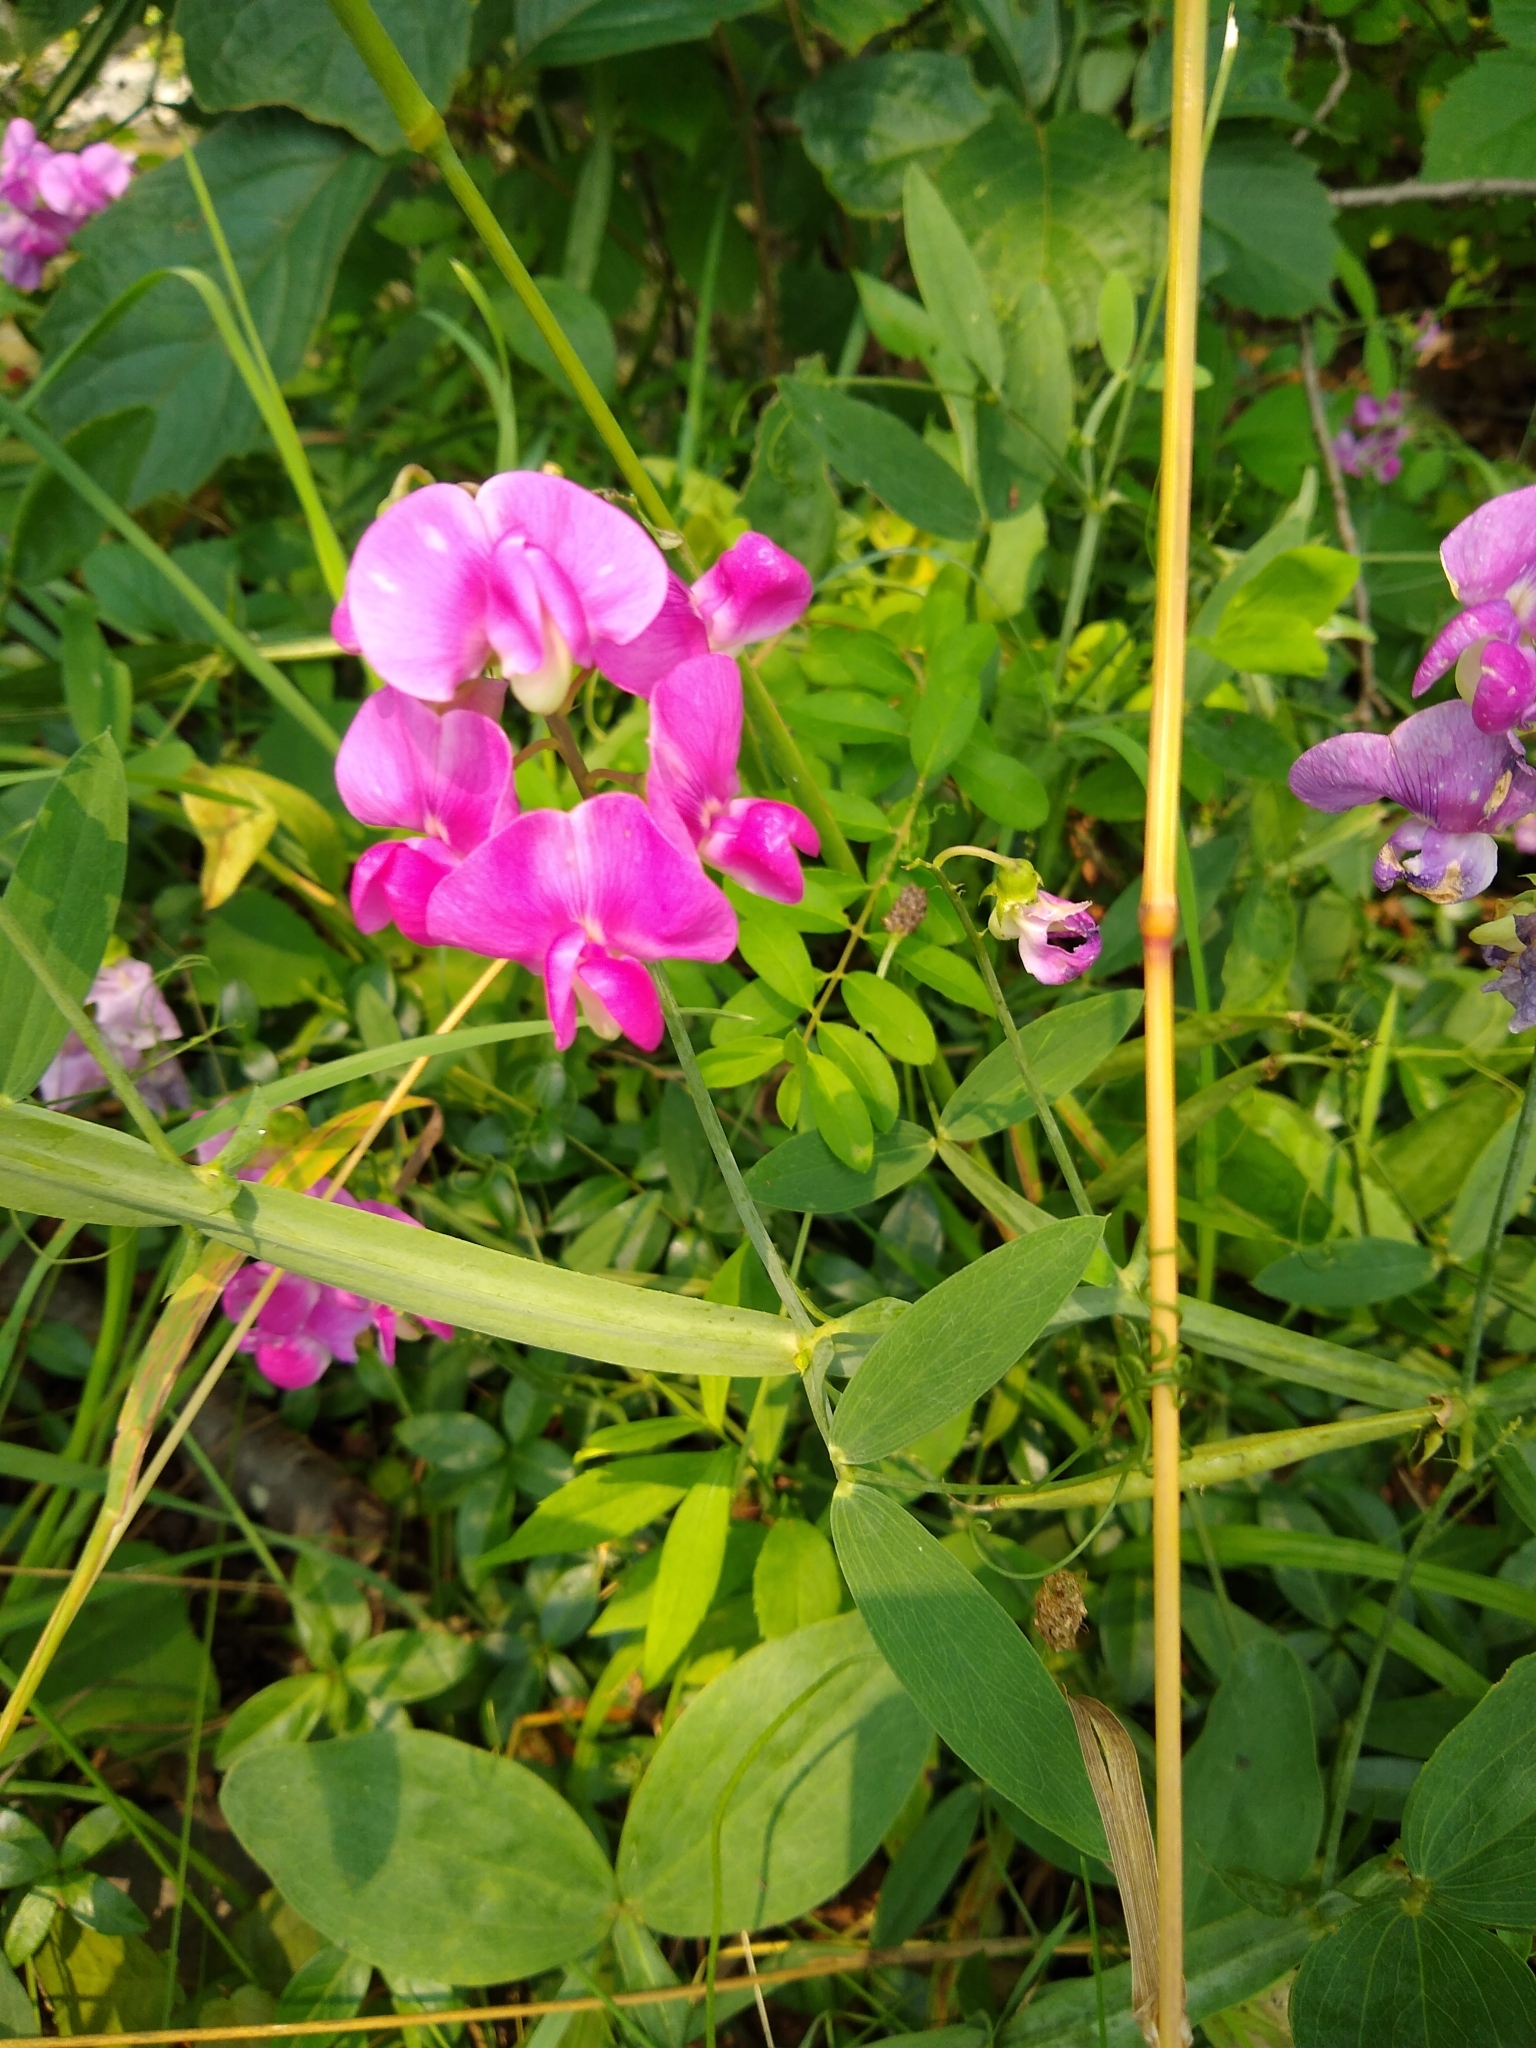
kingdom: Plantae
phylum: Tracheophyta
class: Magnoliopsida
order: Fabales
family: Fabaceae
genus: Lathyrus
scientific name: Lathyrus latifolius
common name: Perennial pea
